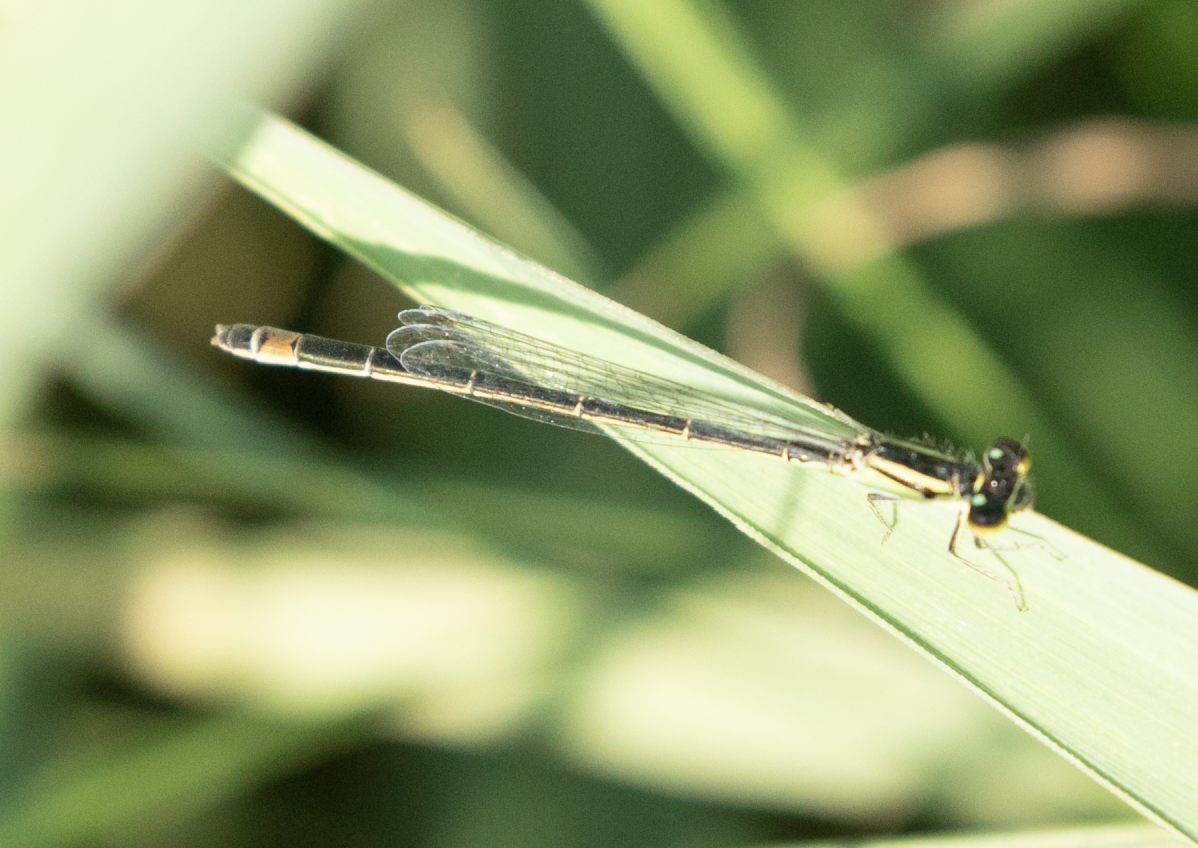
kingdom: Animalia
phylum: Arthropoda
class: Insecta
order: Odonata
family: Coenagrionidae
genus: Ischnura
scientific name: Ischnura elegans
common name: Blue-tailed damselfly
